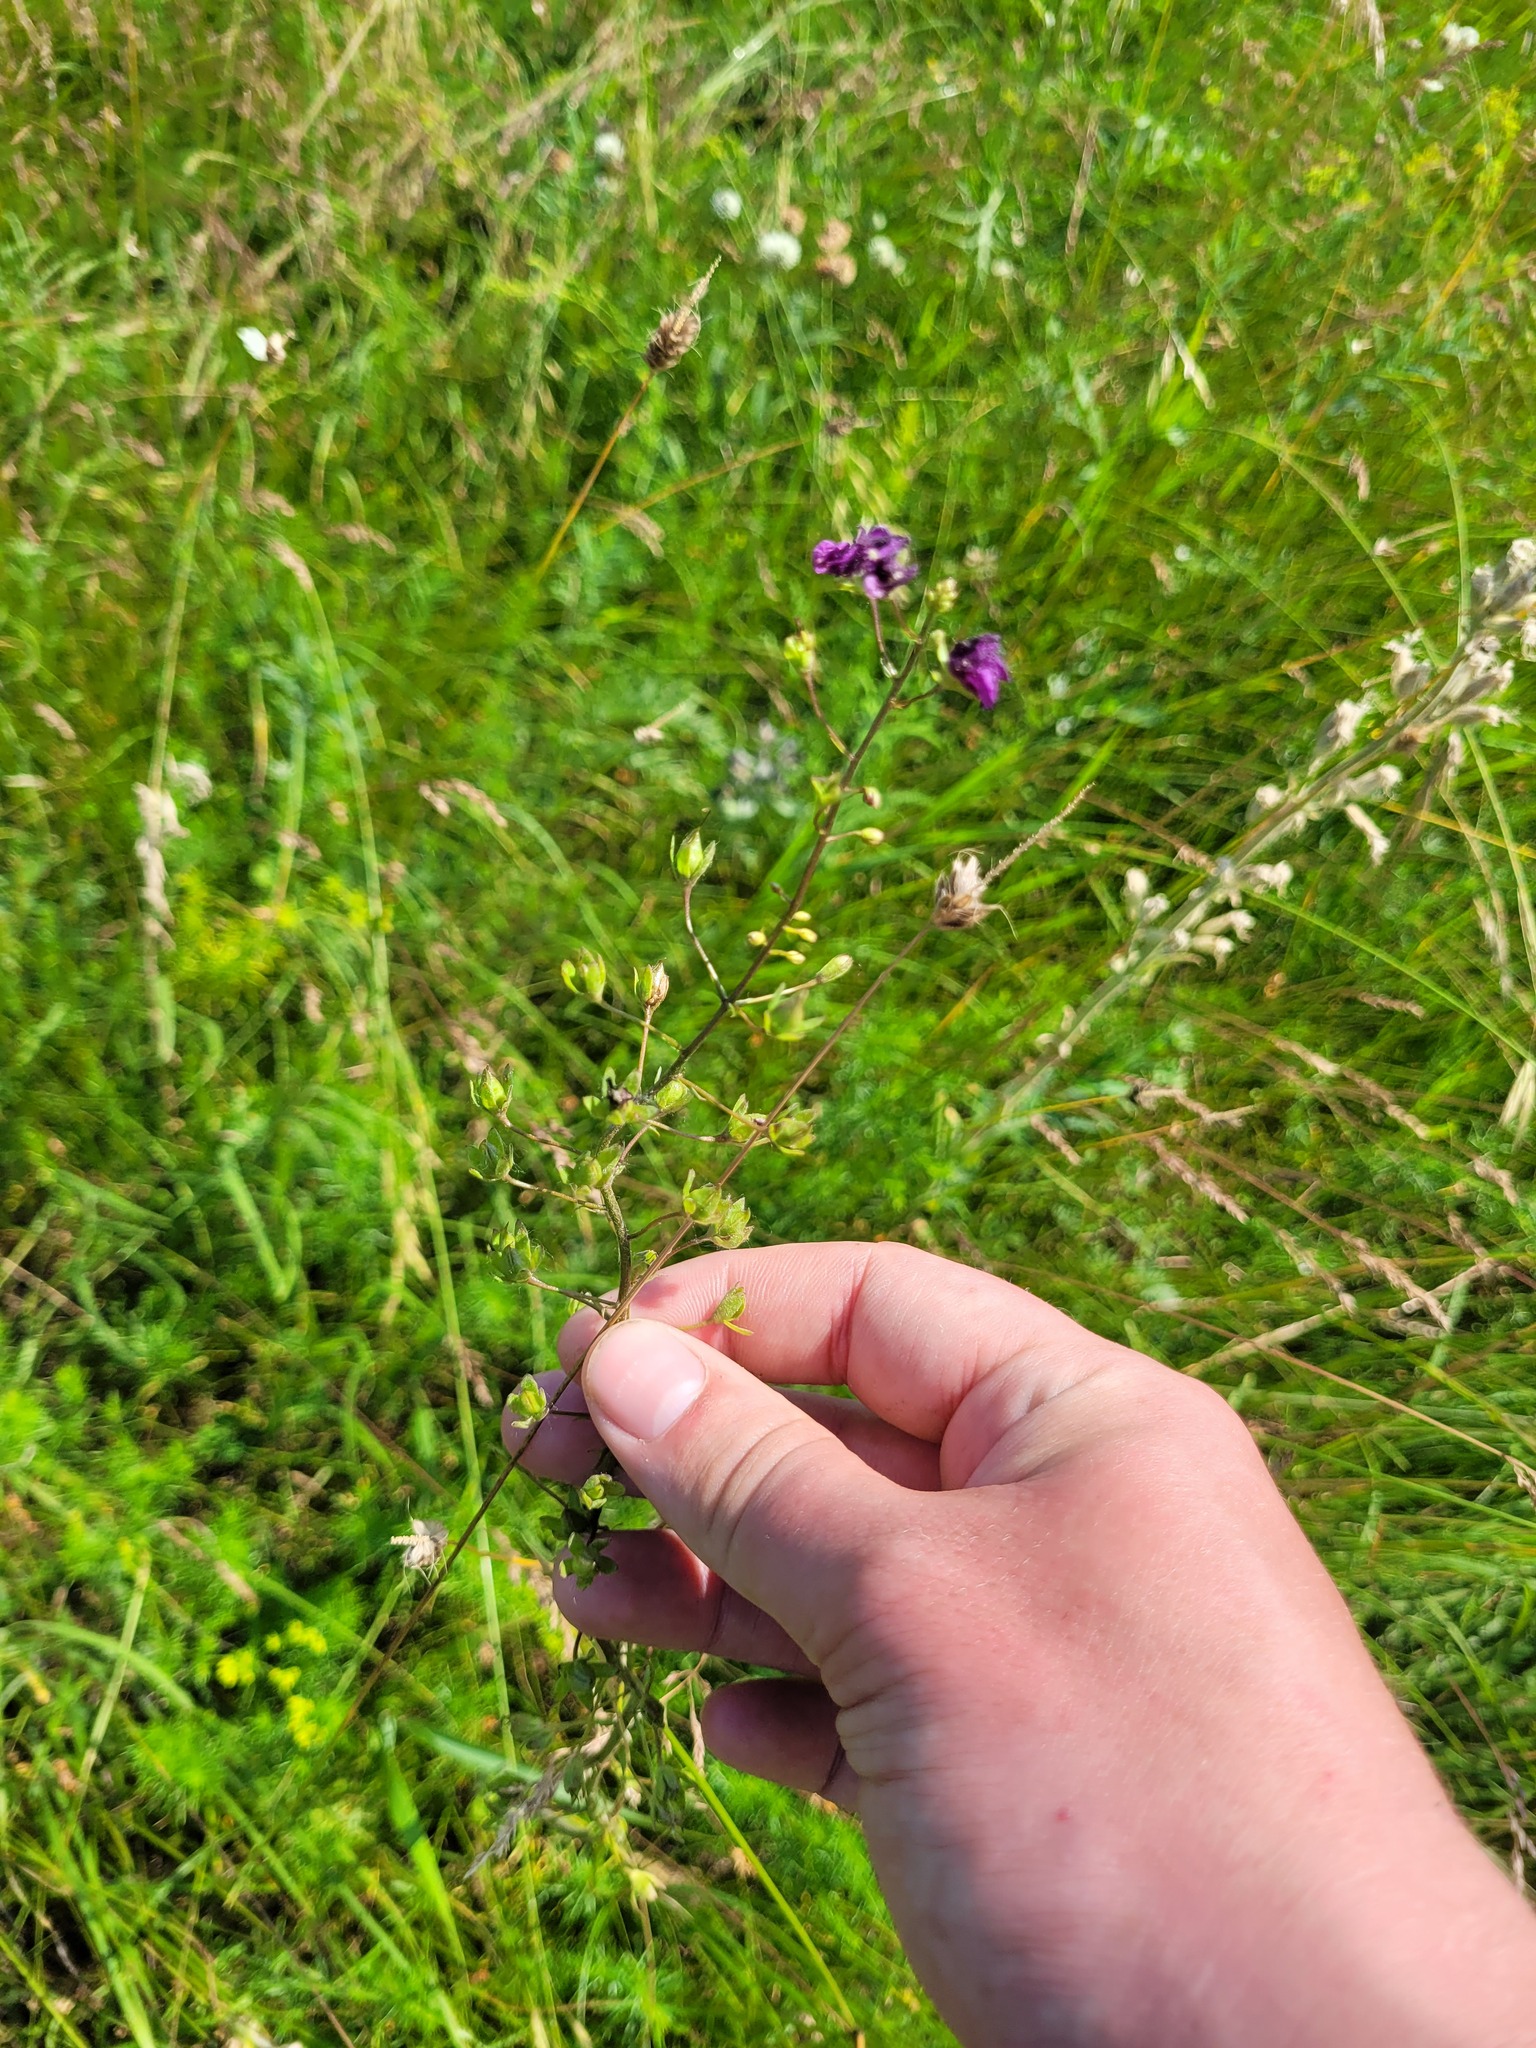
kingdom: Plantae
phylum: Tracheophyta
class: Magnoliopsida
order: Lamiales
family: Scrophulariaceae
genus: Verbascum
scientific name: Verbascum phoeniceum
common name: Purple mullein
